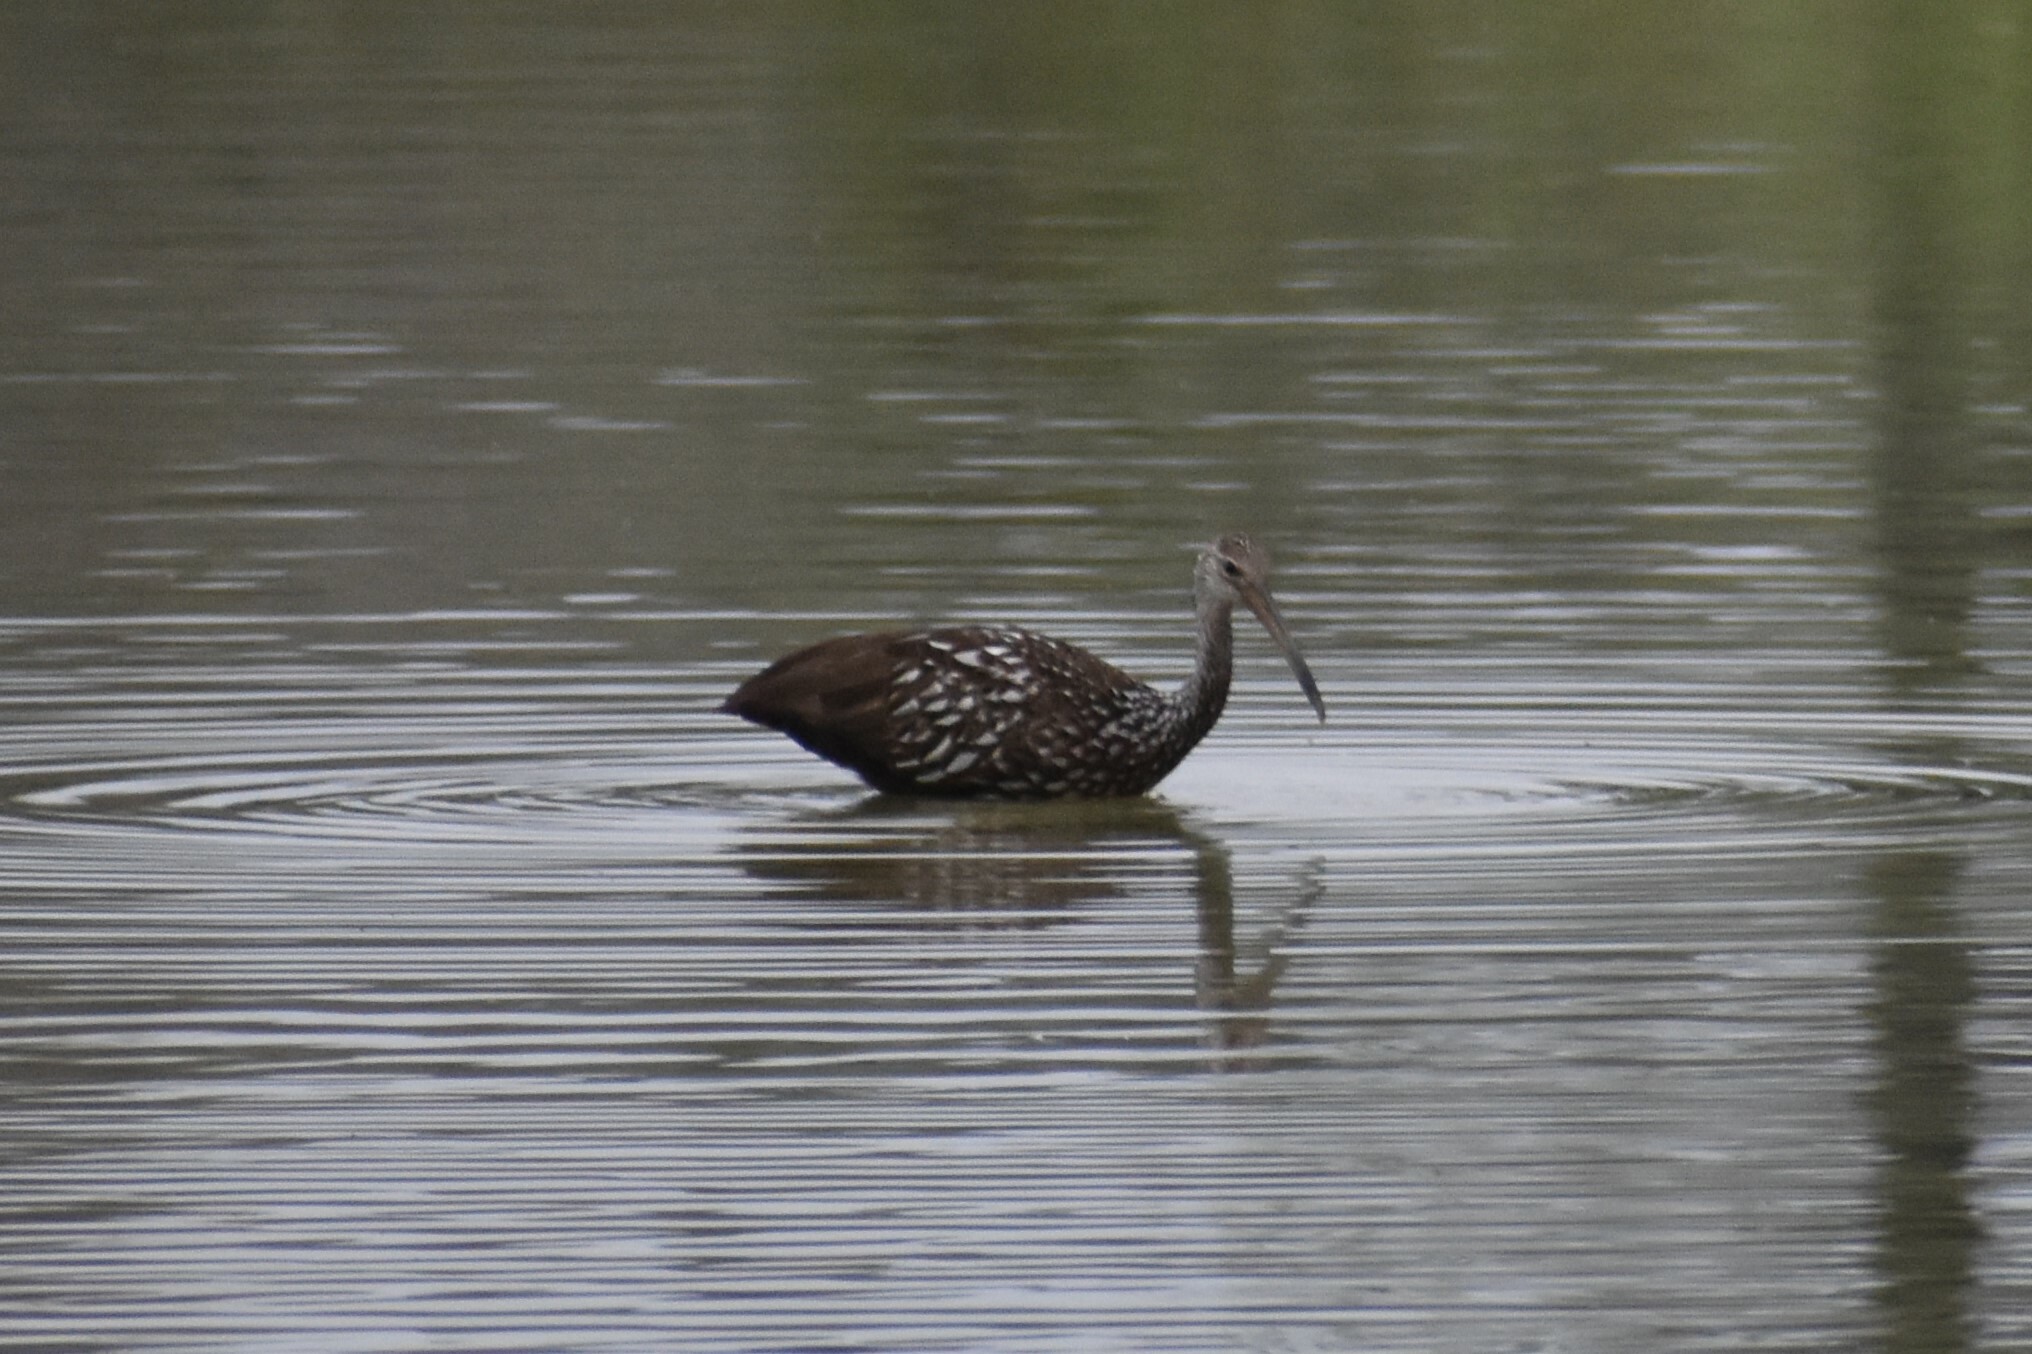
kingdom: Animalia
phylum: Chordata
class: Aves
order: Gruiformes
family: Aramidae
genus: Aramus
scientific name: Aramus guarauna
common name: Limpkin
